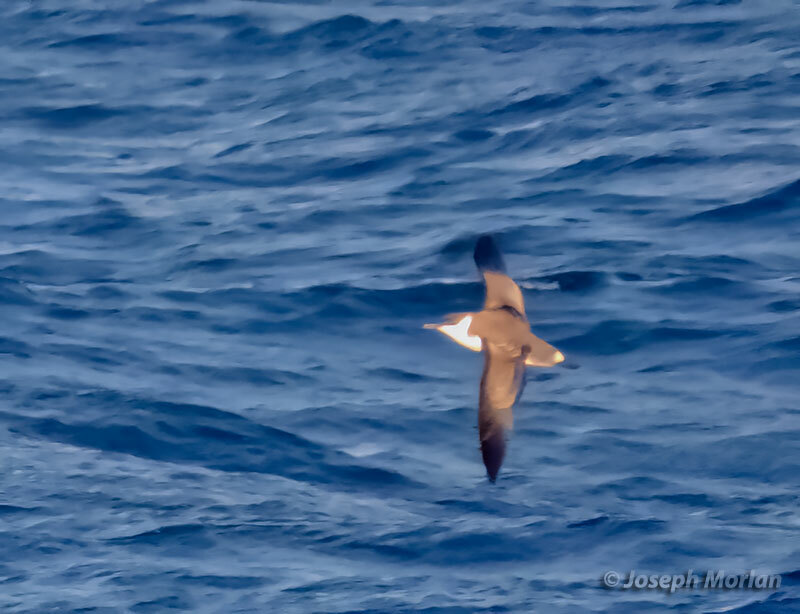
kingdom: Animalia
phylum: Chordata
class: Aves
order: Procellariiformes
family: Procellariidae
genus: Puffinus
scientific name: Puffinus gravis
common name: Great shearwater
